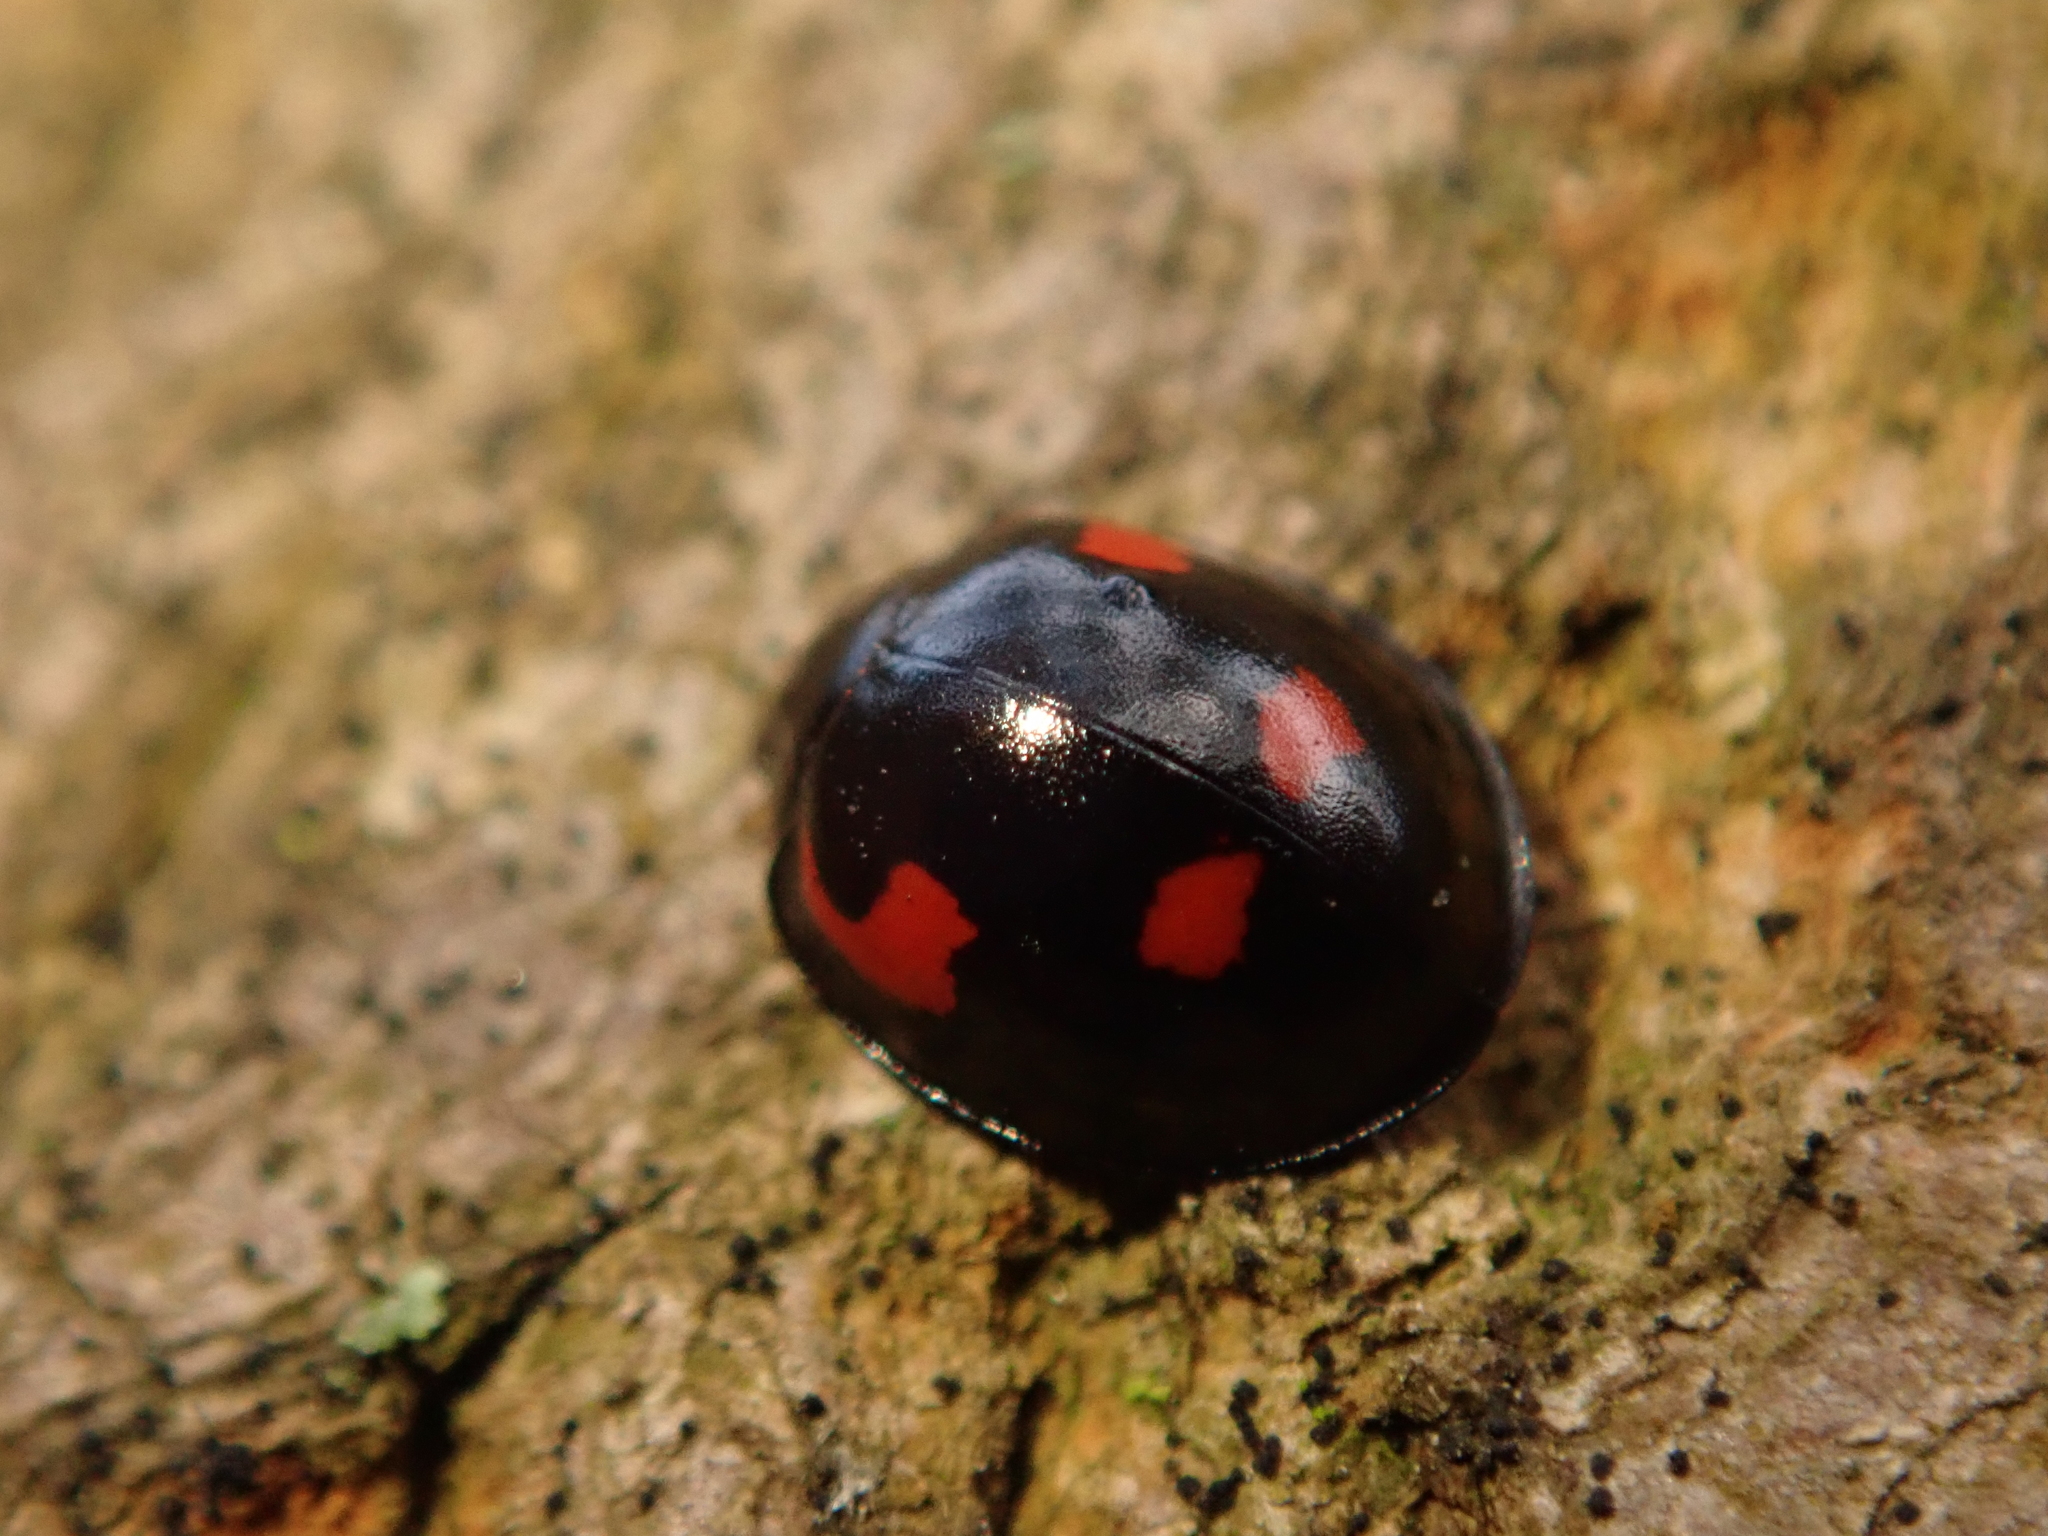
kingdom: Animalia
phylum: Arthropoda
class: Insecta
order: Coleoptera
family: Coccinellidae
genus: Brumus
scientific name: Brumus quadripustulatus
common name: Ladybird beetle
